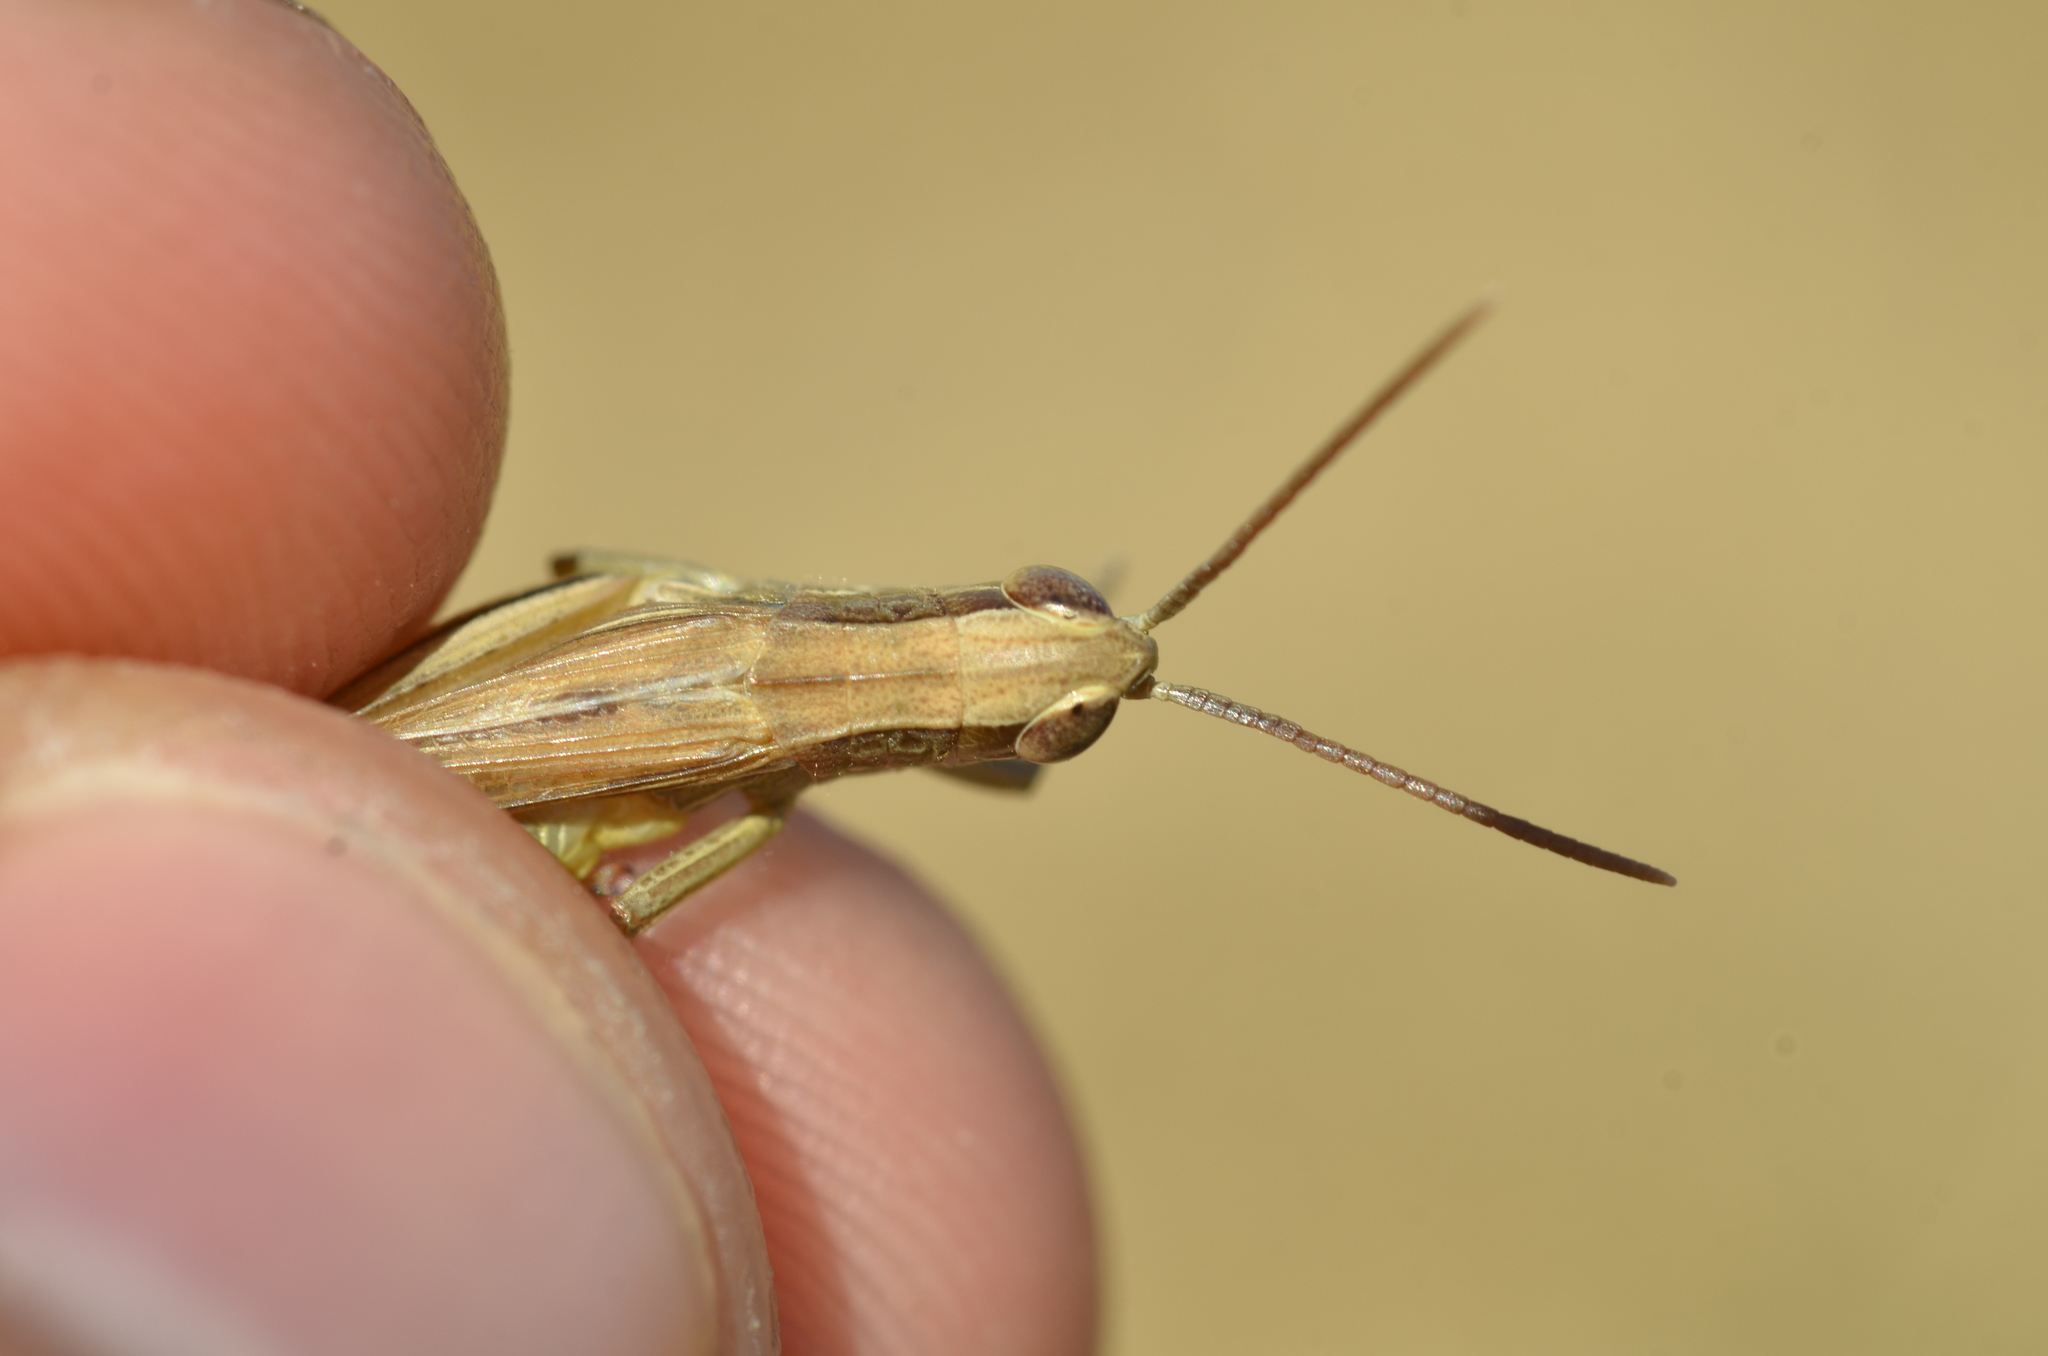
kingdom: Animalia
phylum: Arthropoda
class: Insecta
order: Orthoptera
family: Acrididae
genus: Euchorthippus
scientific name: Euchorthippus elegantulus
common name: Elegant straw grasshopper
